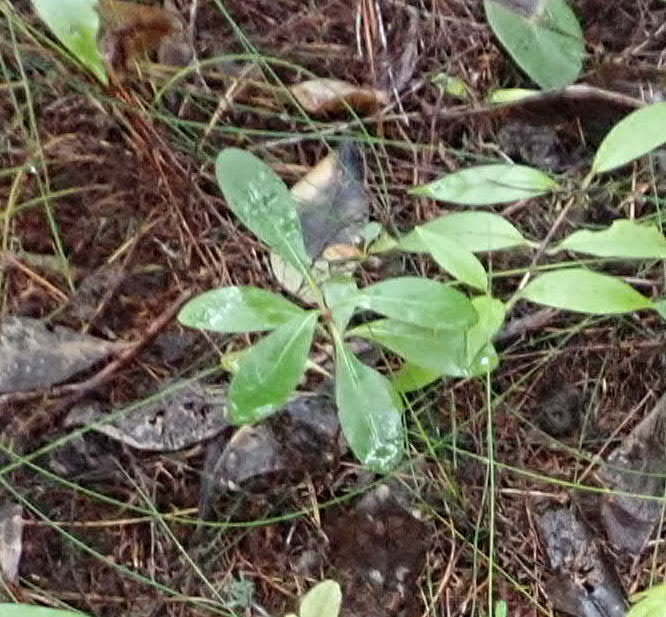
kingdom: Plantae
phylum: Tracheophyta
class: Magnoliopsida
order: Gentianales
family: Rubiaceae
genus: Coprosma
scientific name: Coprosma lucida
